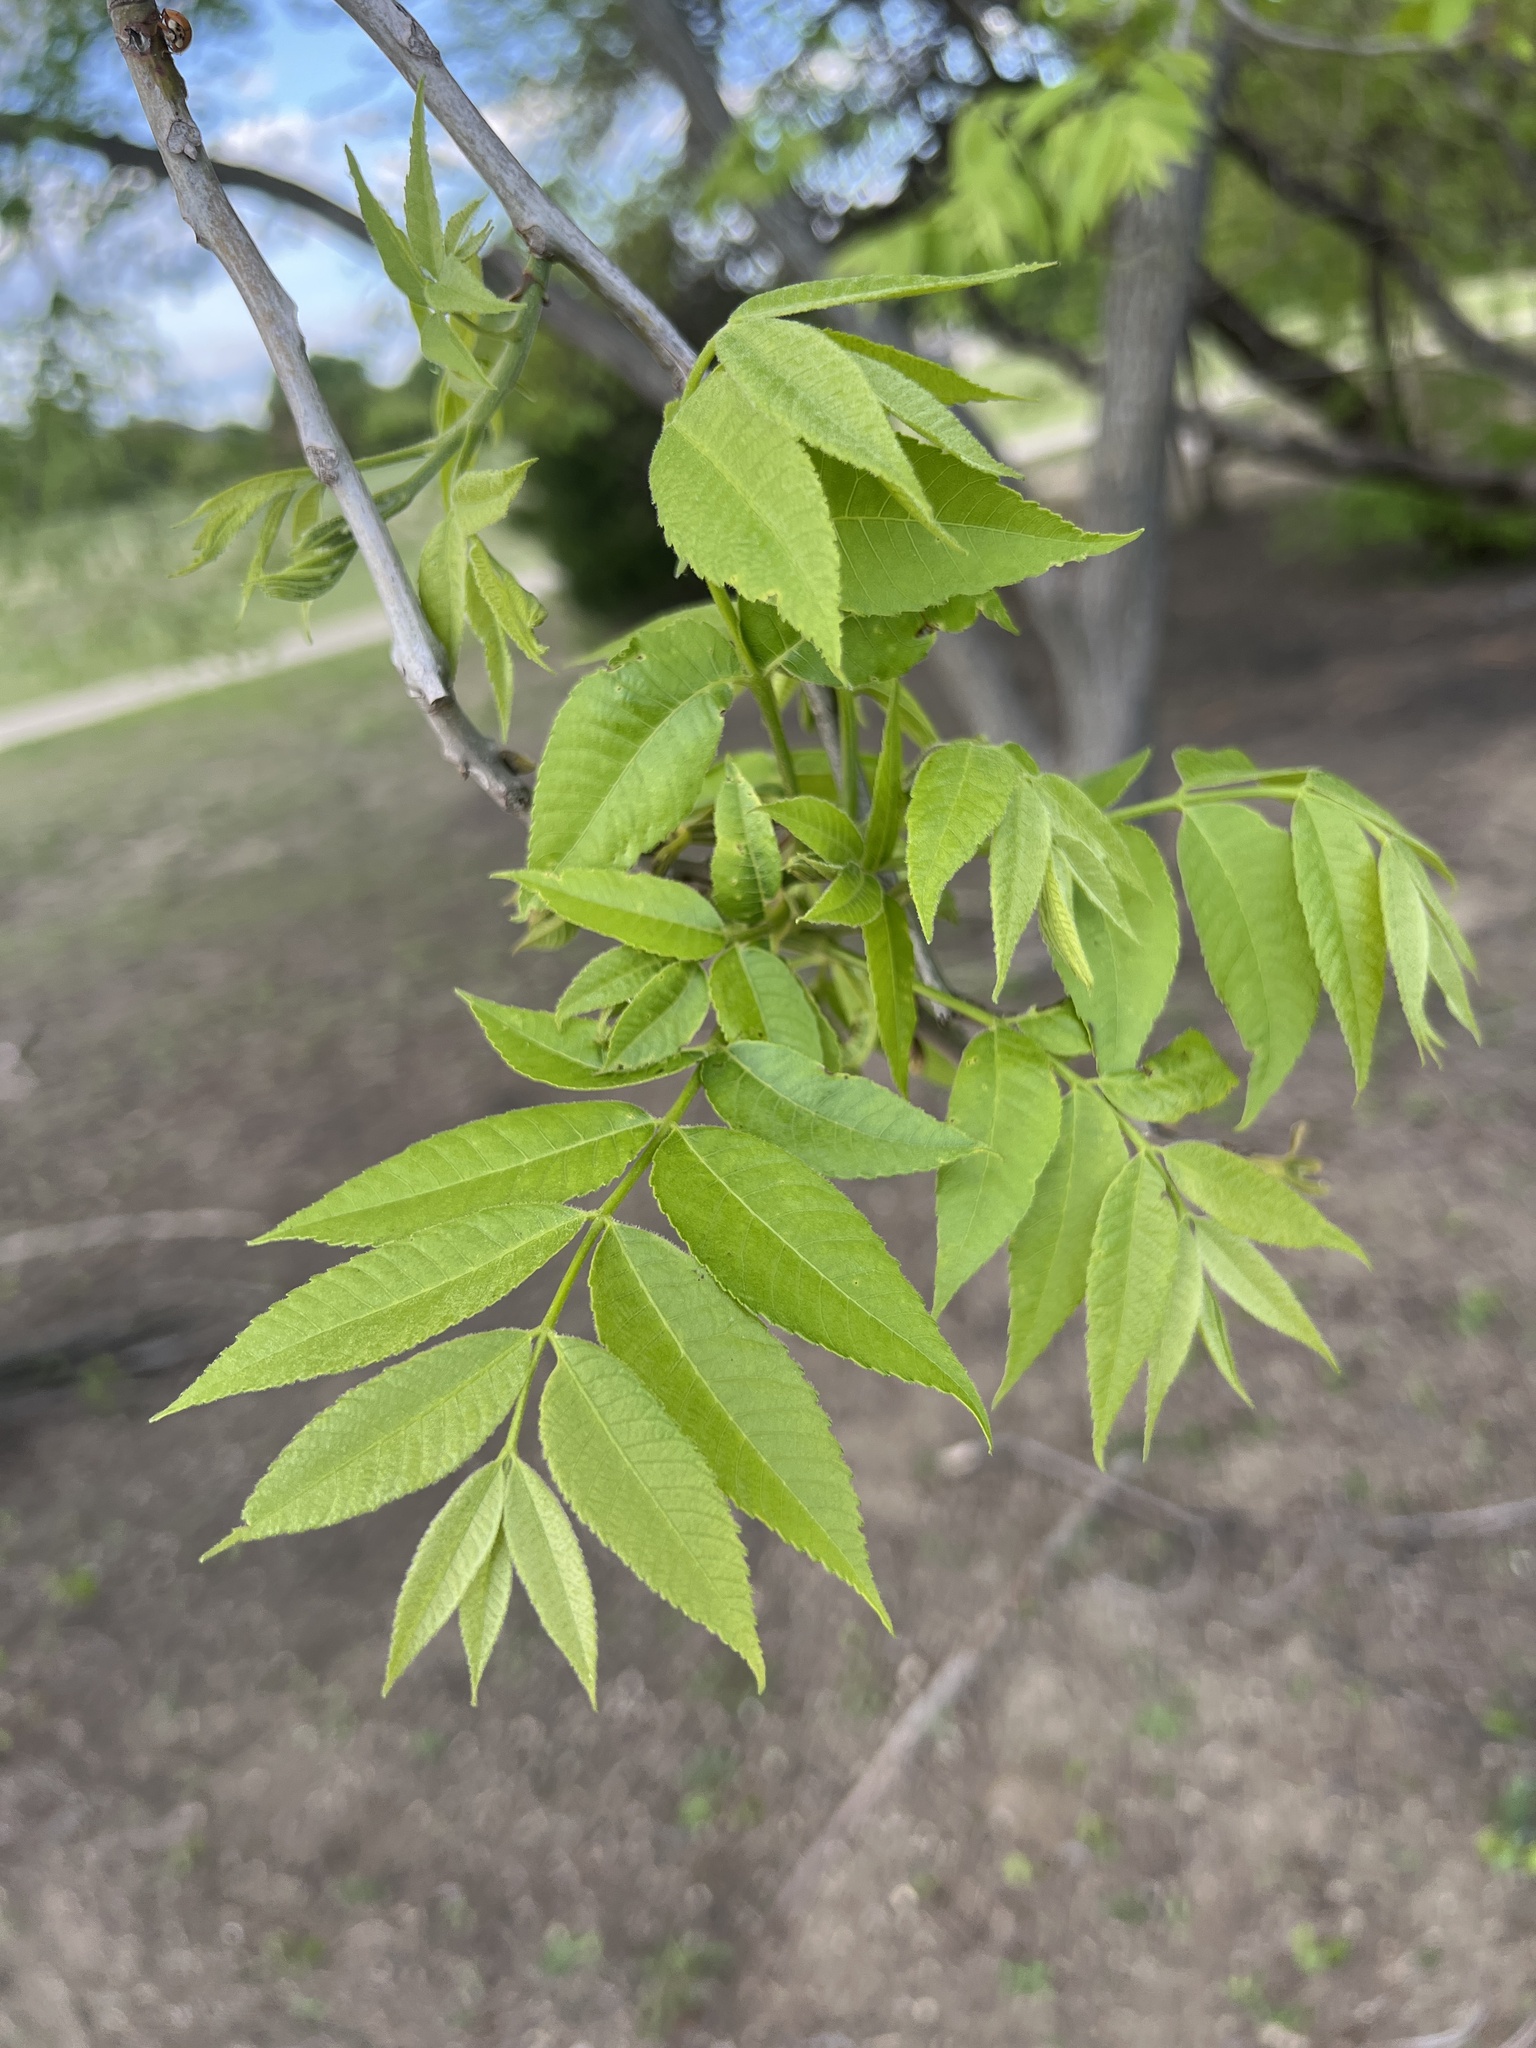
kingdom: Plantae
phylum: Tracheophyta
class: Magnoliopsida
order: Fagales
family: Juglandaceae
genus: Carya
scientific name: Carya illinoinensis
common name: Pecan
